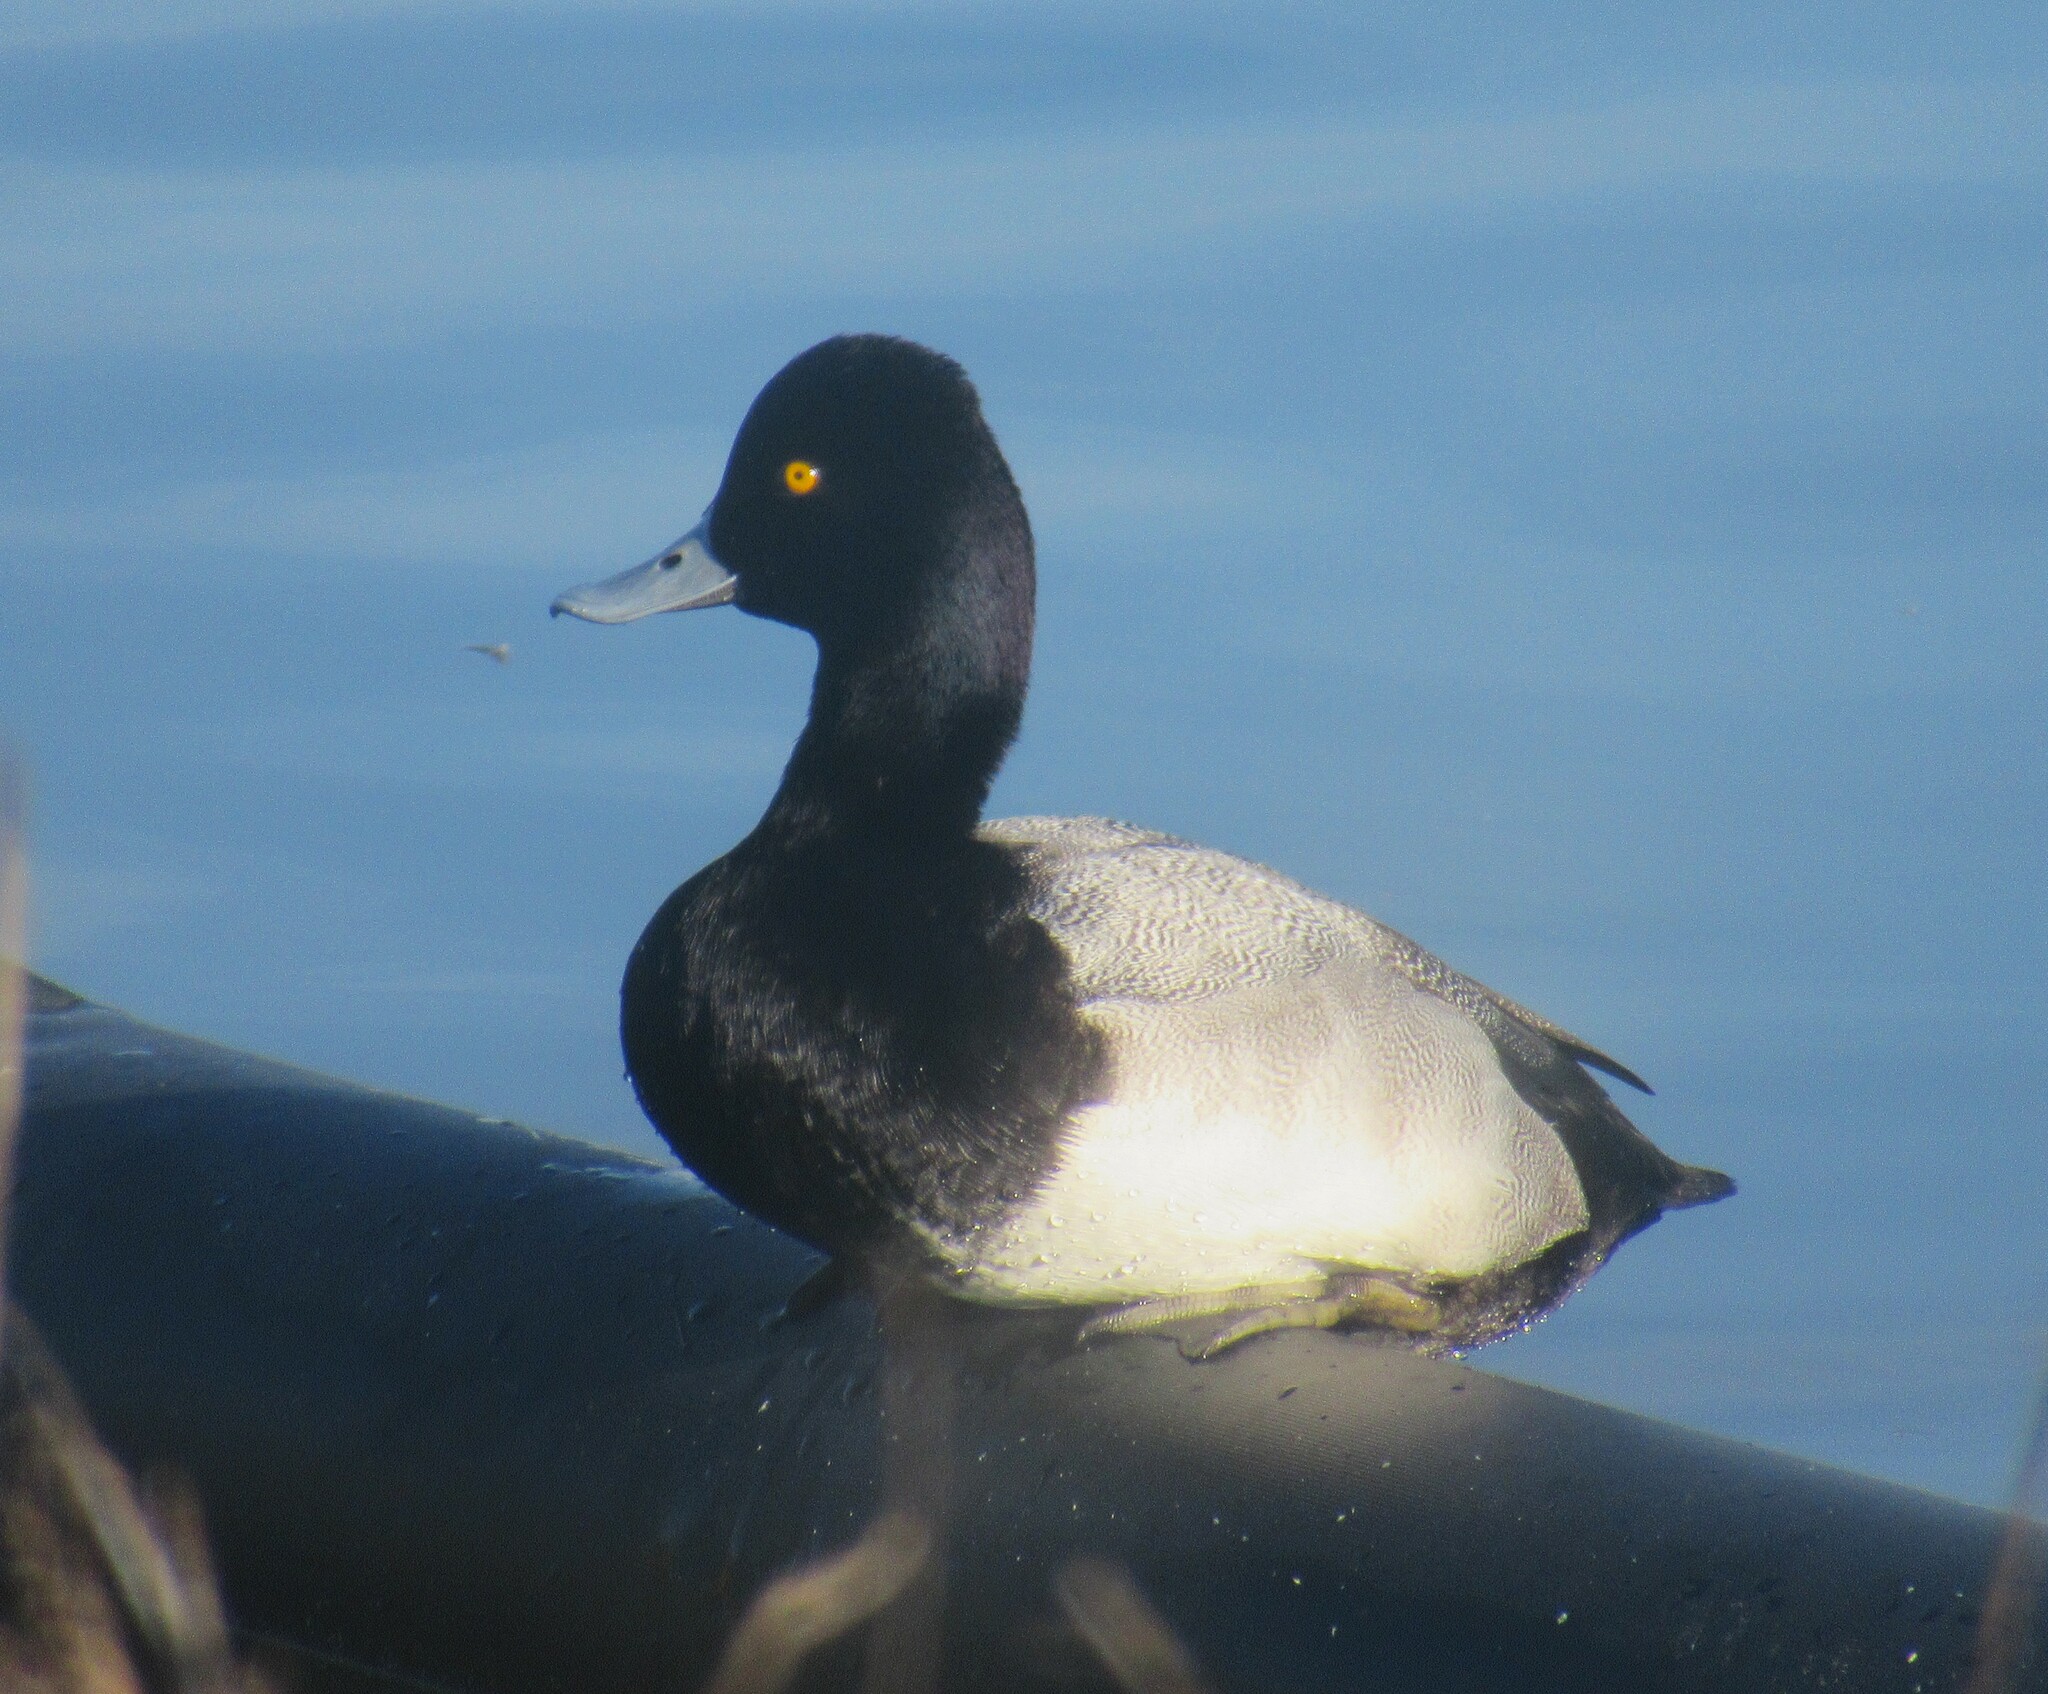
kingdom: Animalia
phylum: Chordata
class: Aves
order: Anseriformes
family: Anatidae
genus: Aythya
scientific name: Aythya affinis
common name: Lesser scaup
